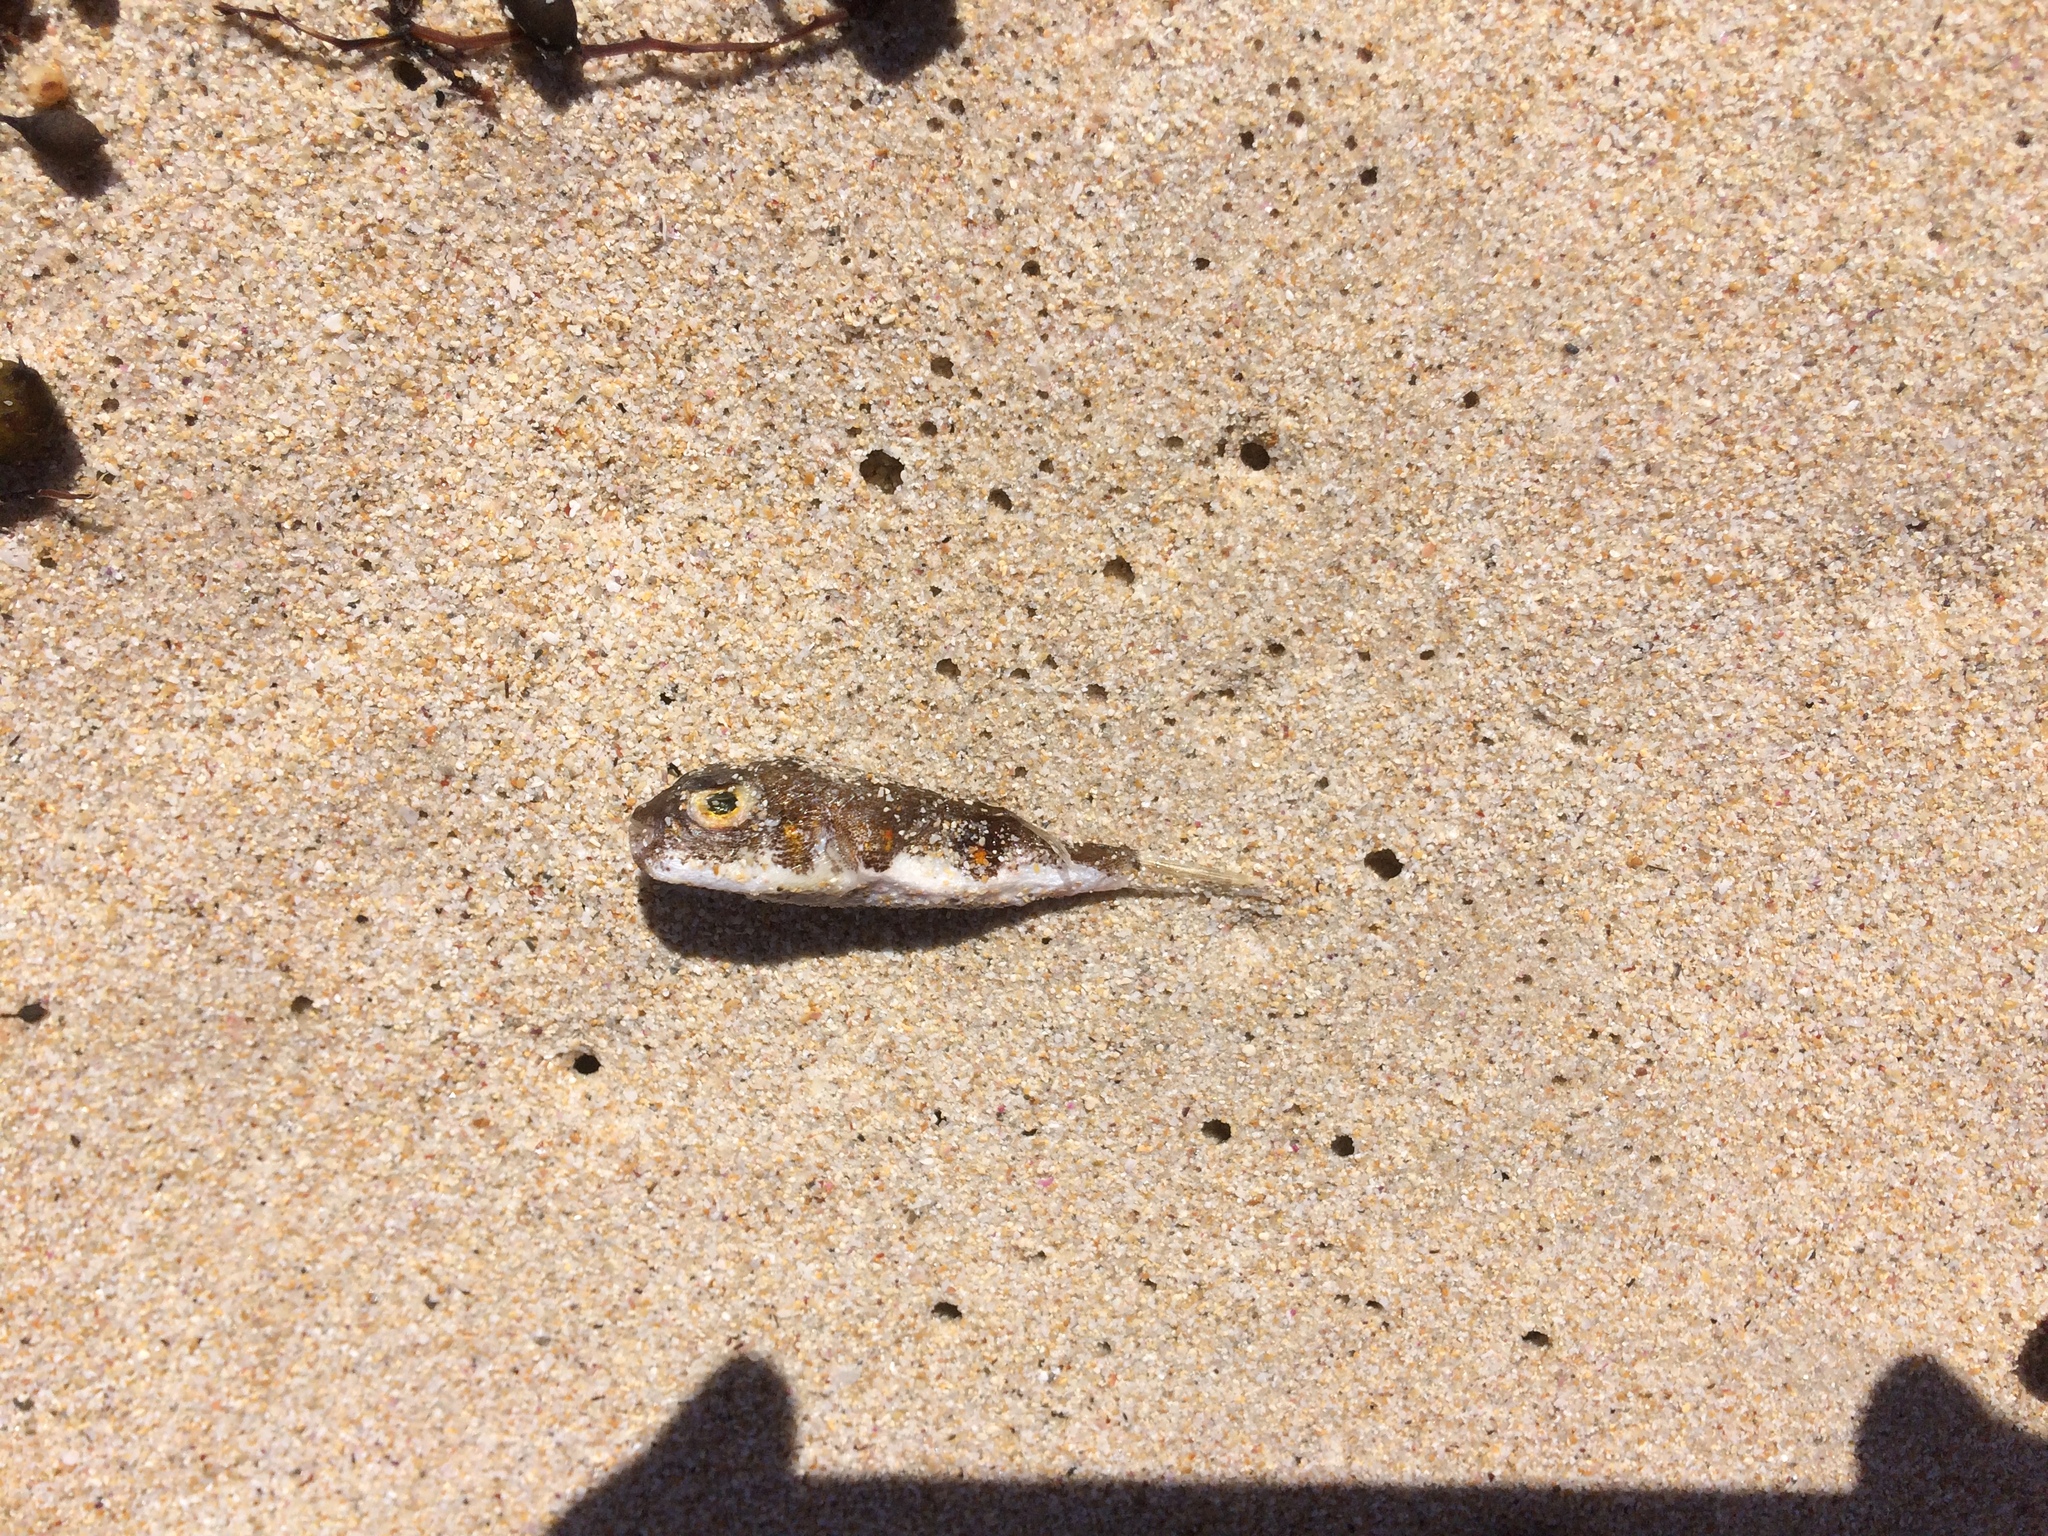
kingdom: Animalia
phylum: Chordata
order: Tetraodontiformes
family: Tetraodontidae
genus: Polyspina
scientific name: Polyspina piosae
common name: Orange-barred pufferfish
